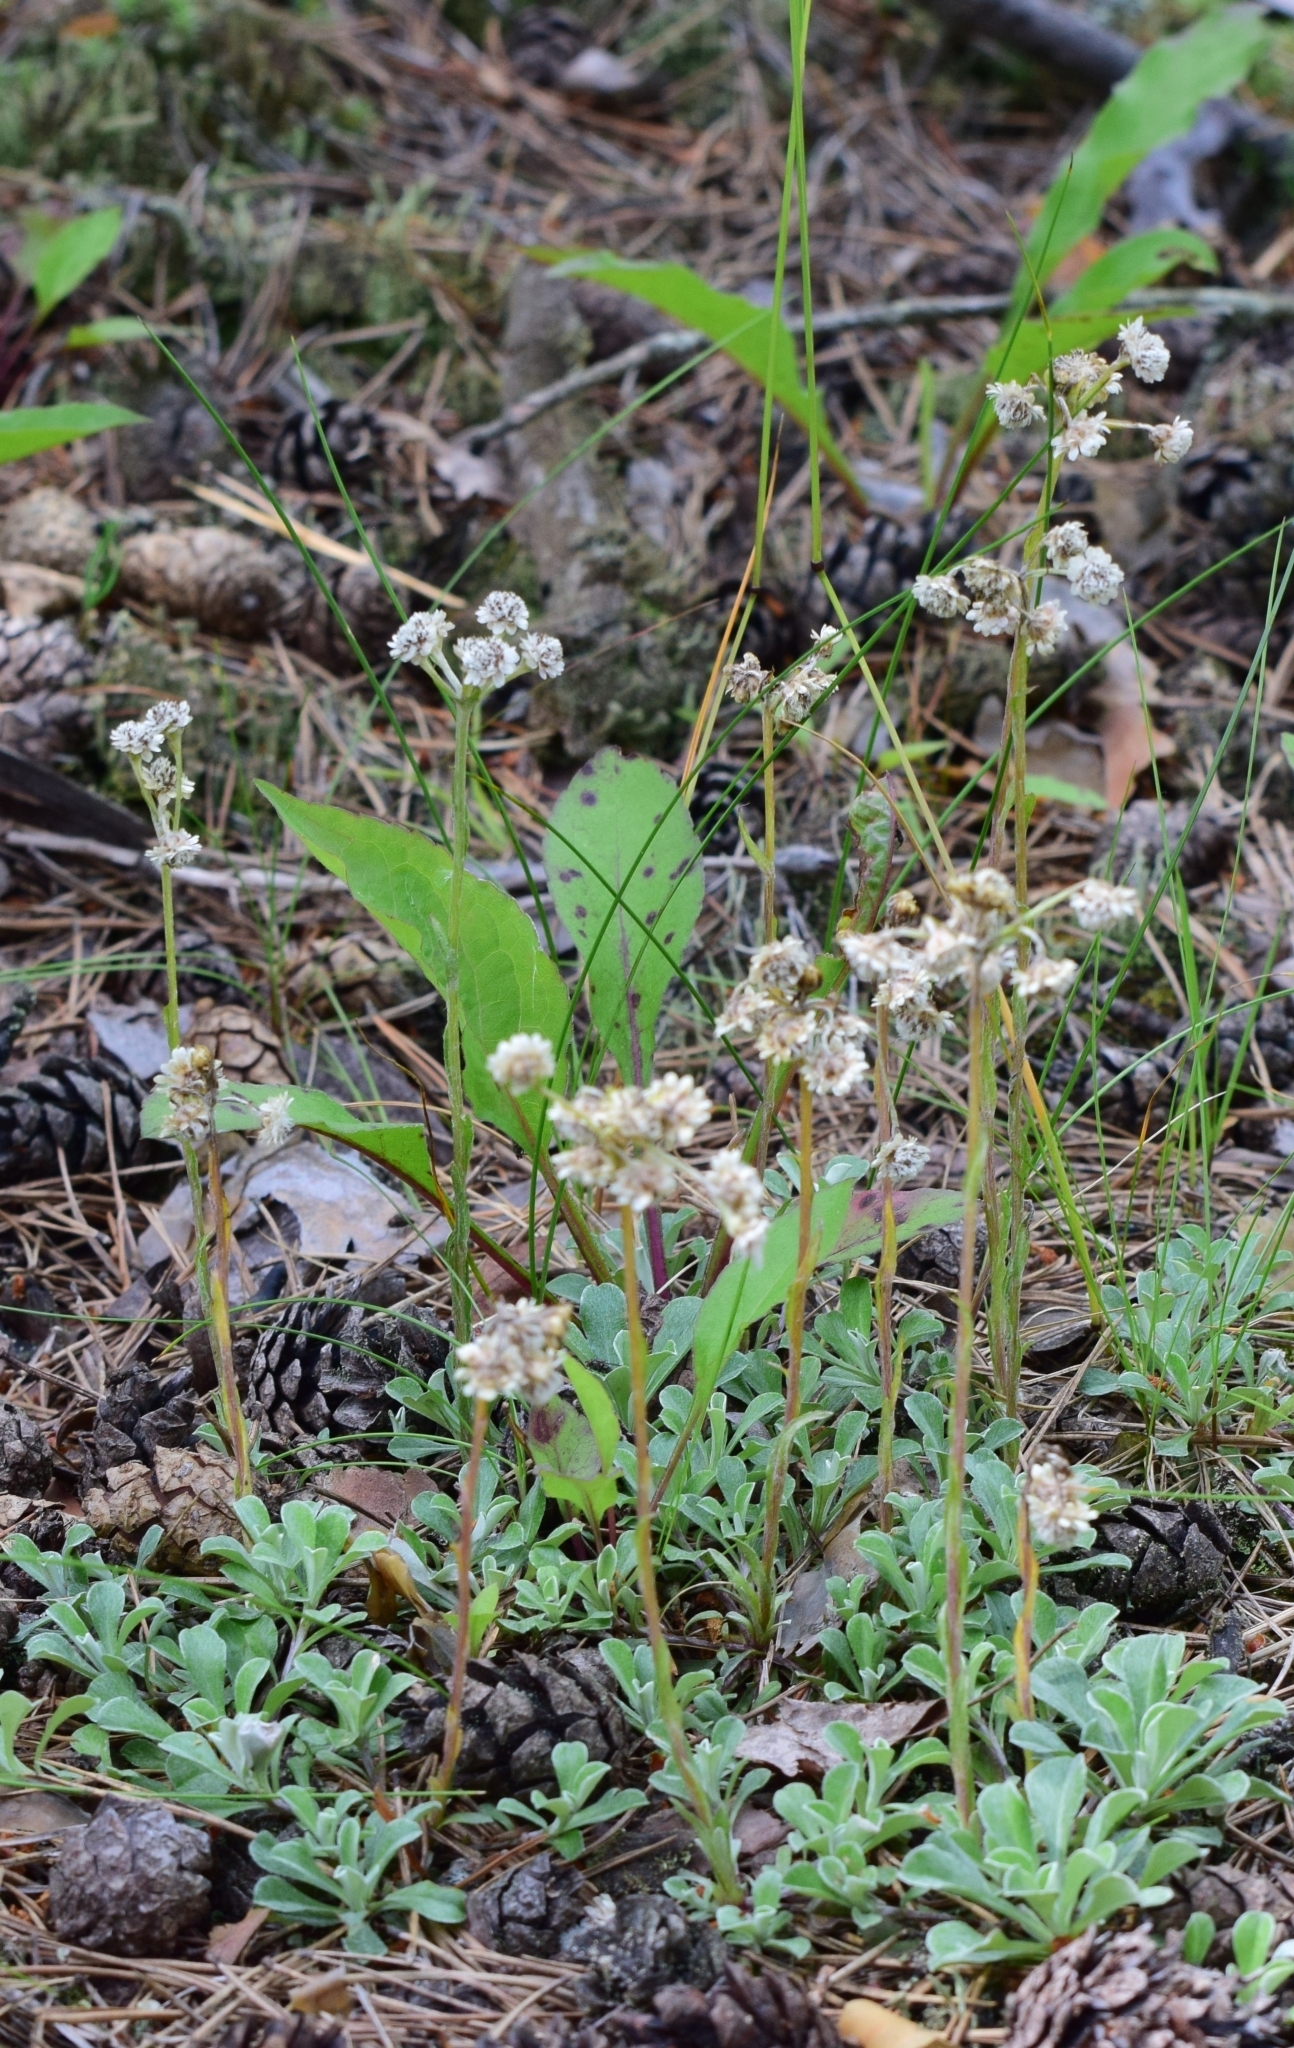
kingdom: Plantae
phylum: Tracheophyta
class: Magnoliopsida
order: Asterales
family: Asteraceae
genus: Antennaria
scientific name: Antennaria dioica
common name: Mountain everlasting
